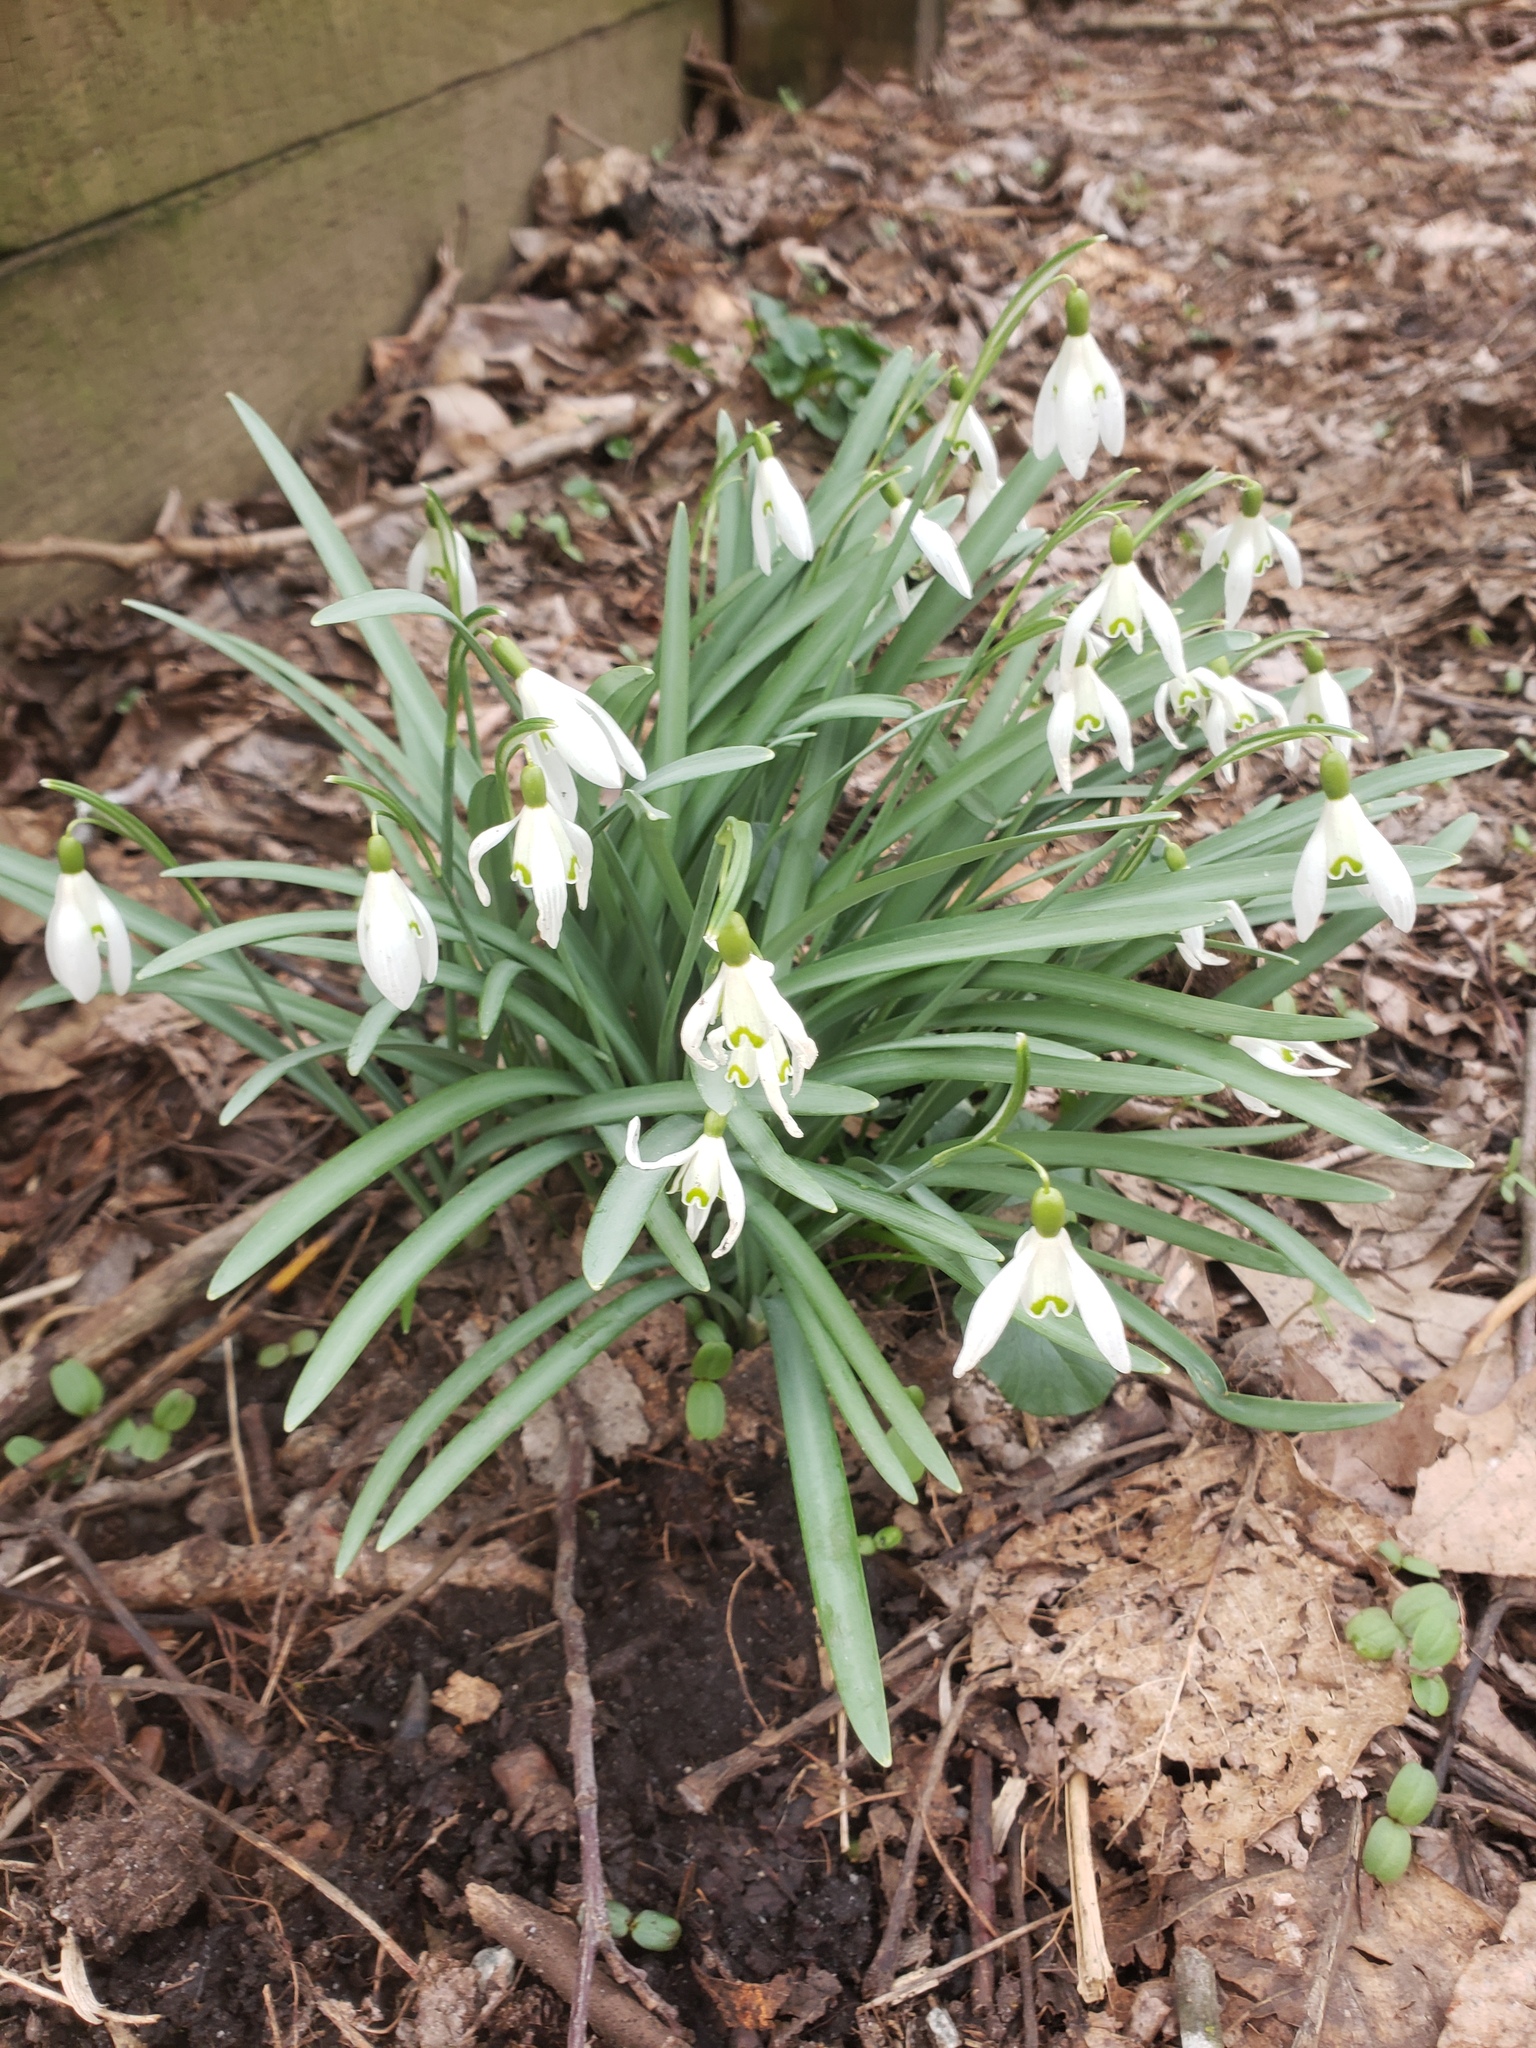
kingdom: Plantae
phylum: Tracheophyta
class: Liliopsida
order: Asparagales
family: Amaryllidaceae
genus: Galanthus
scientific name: Galanthus nivalis
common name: Snowdrop
